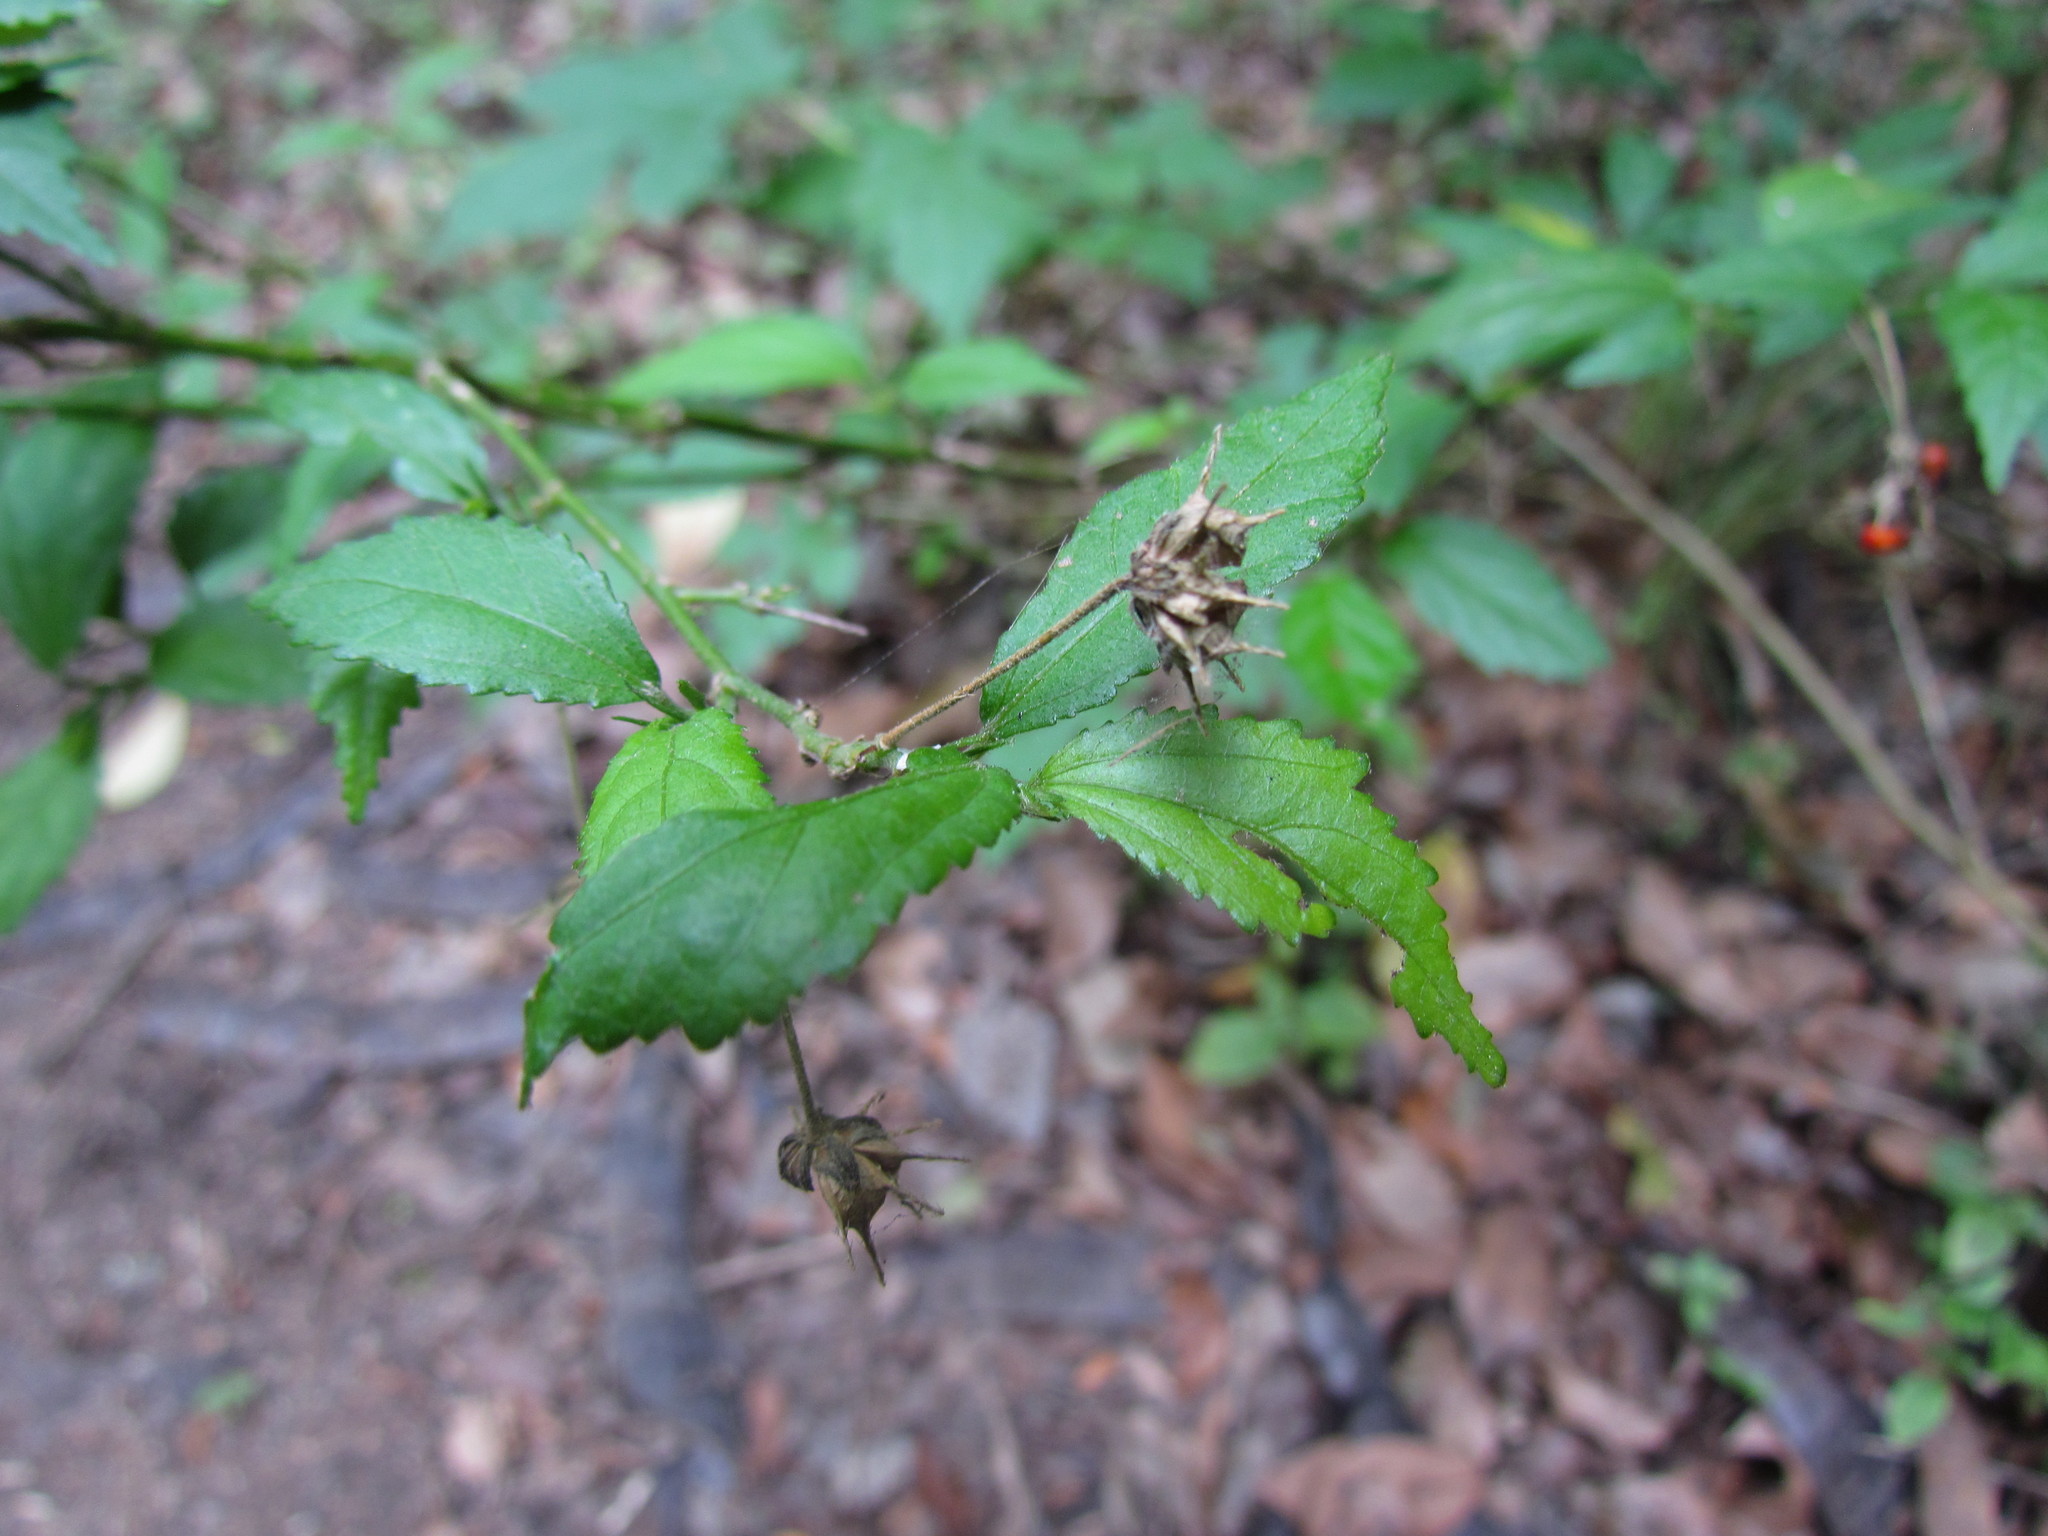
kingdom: Plantae
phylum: Tracheophyta
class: Magnoliopsida
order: Malvales
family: Malvaceae
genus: Pavonia
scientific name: Pavonia sepium
